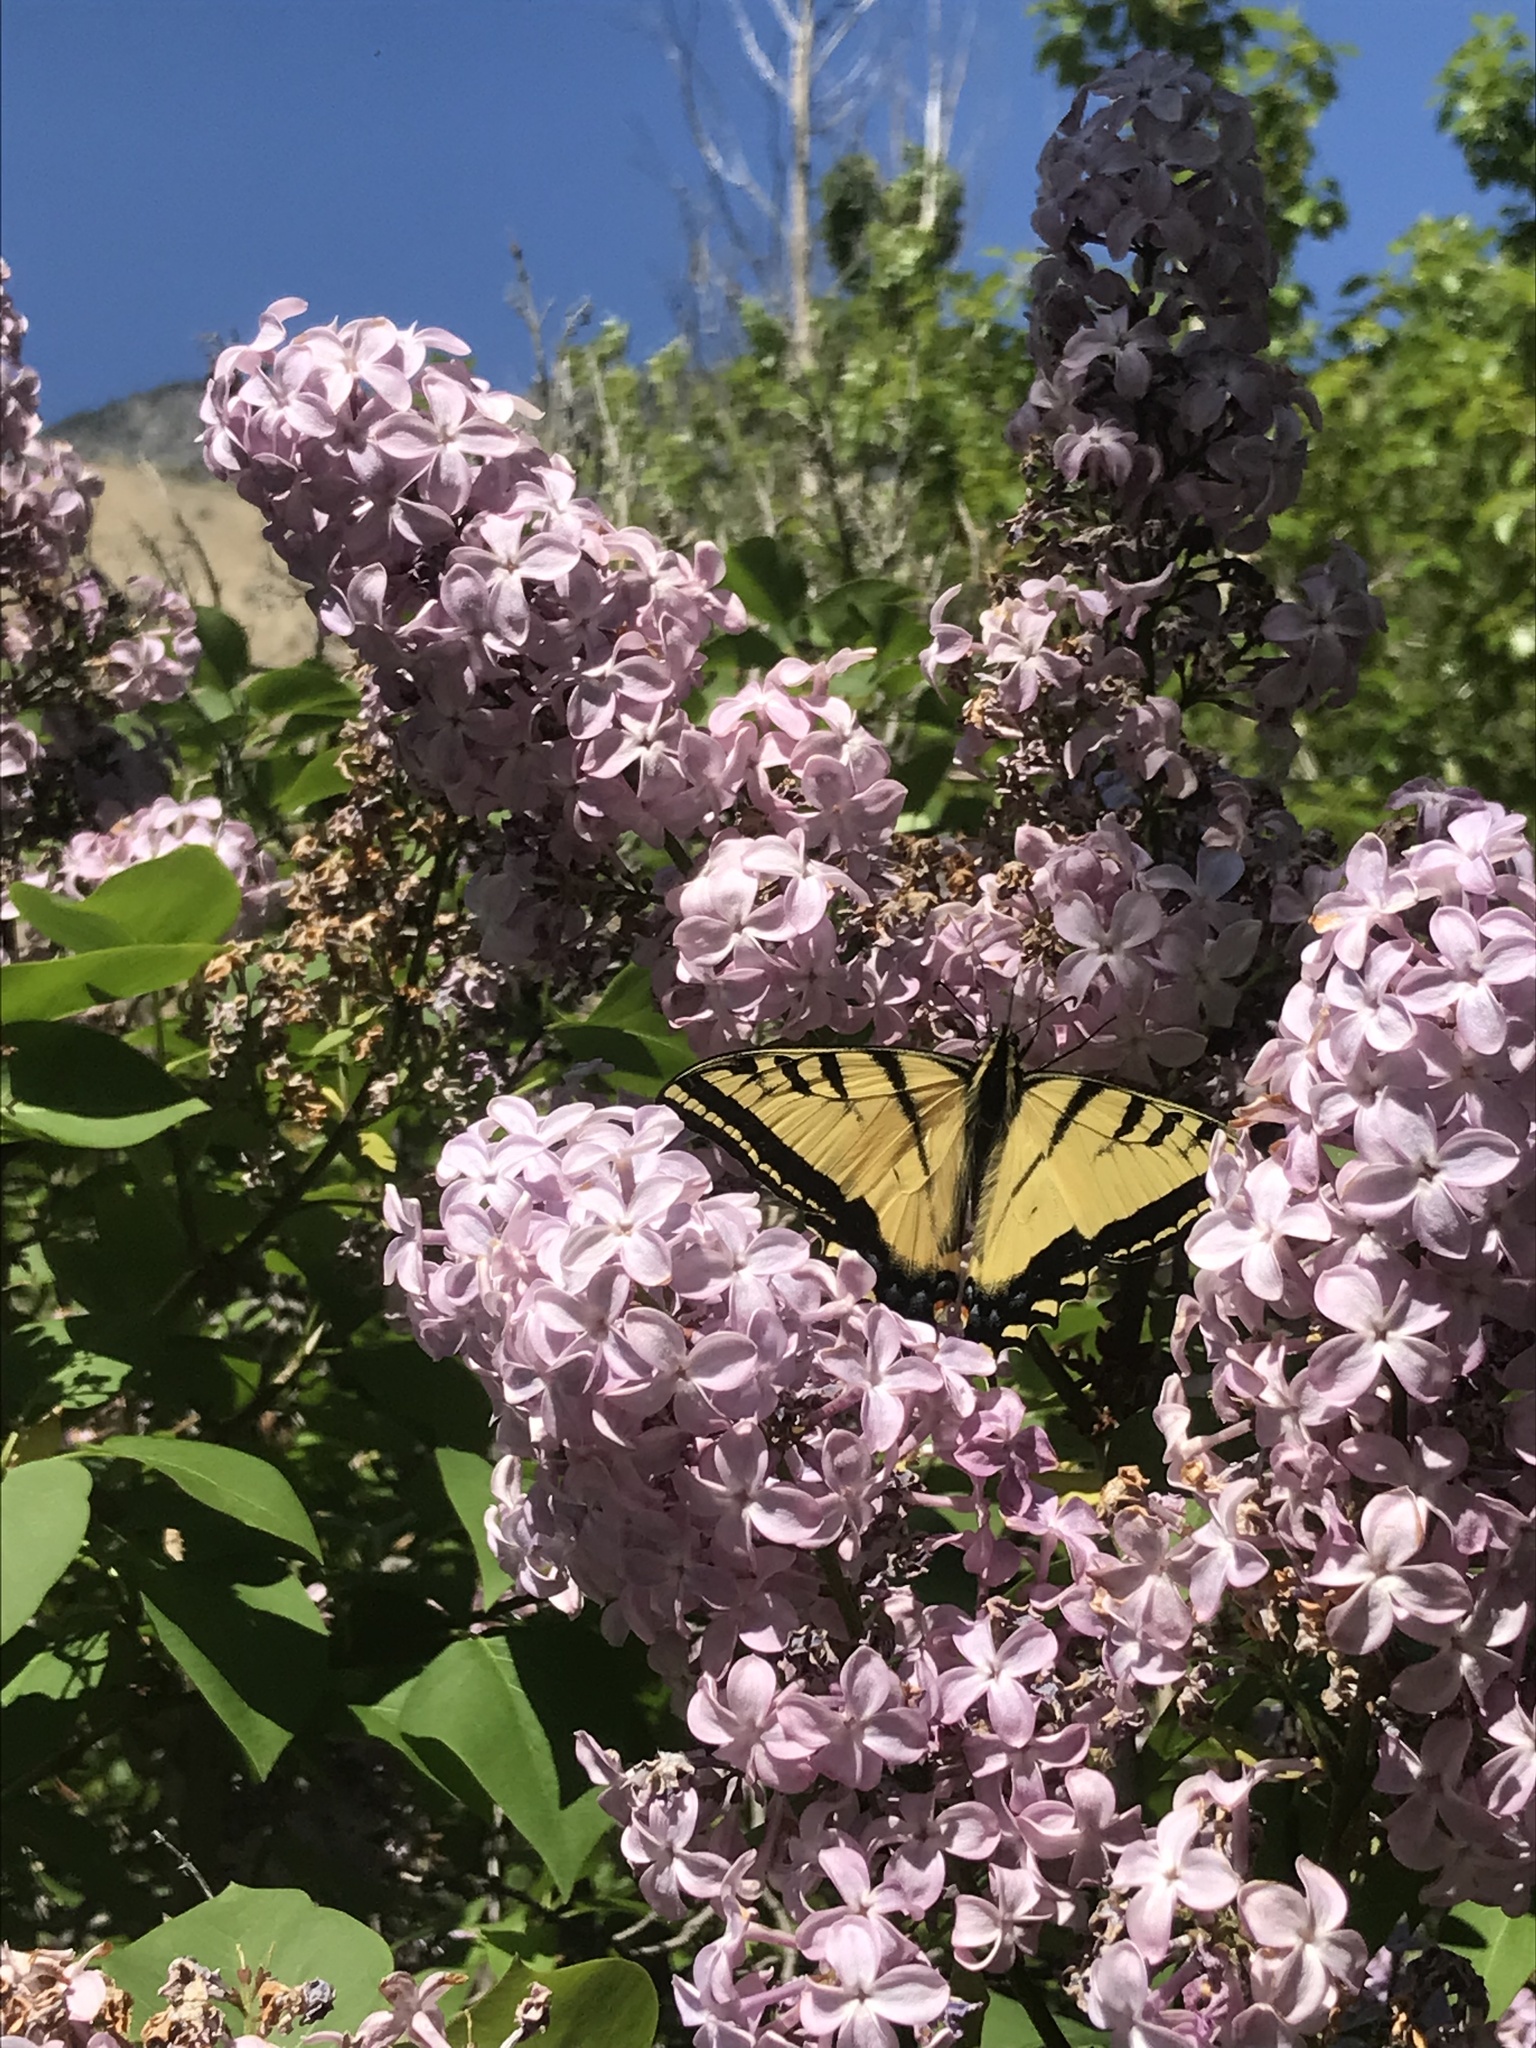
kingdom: Animalia
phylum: Arthropoda
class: Insecta
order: Lepidoptera
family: Papilionidae
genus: Papilio
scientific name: Papilio multicaudata
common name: Two-tailed tiger swallowtail
